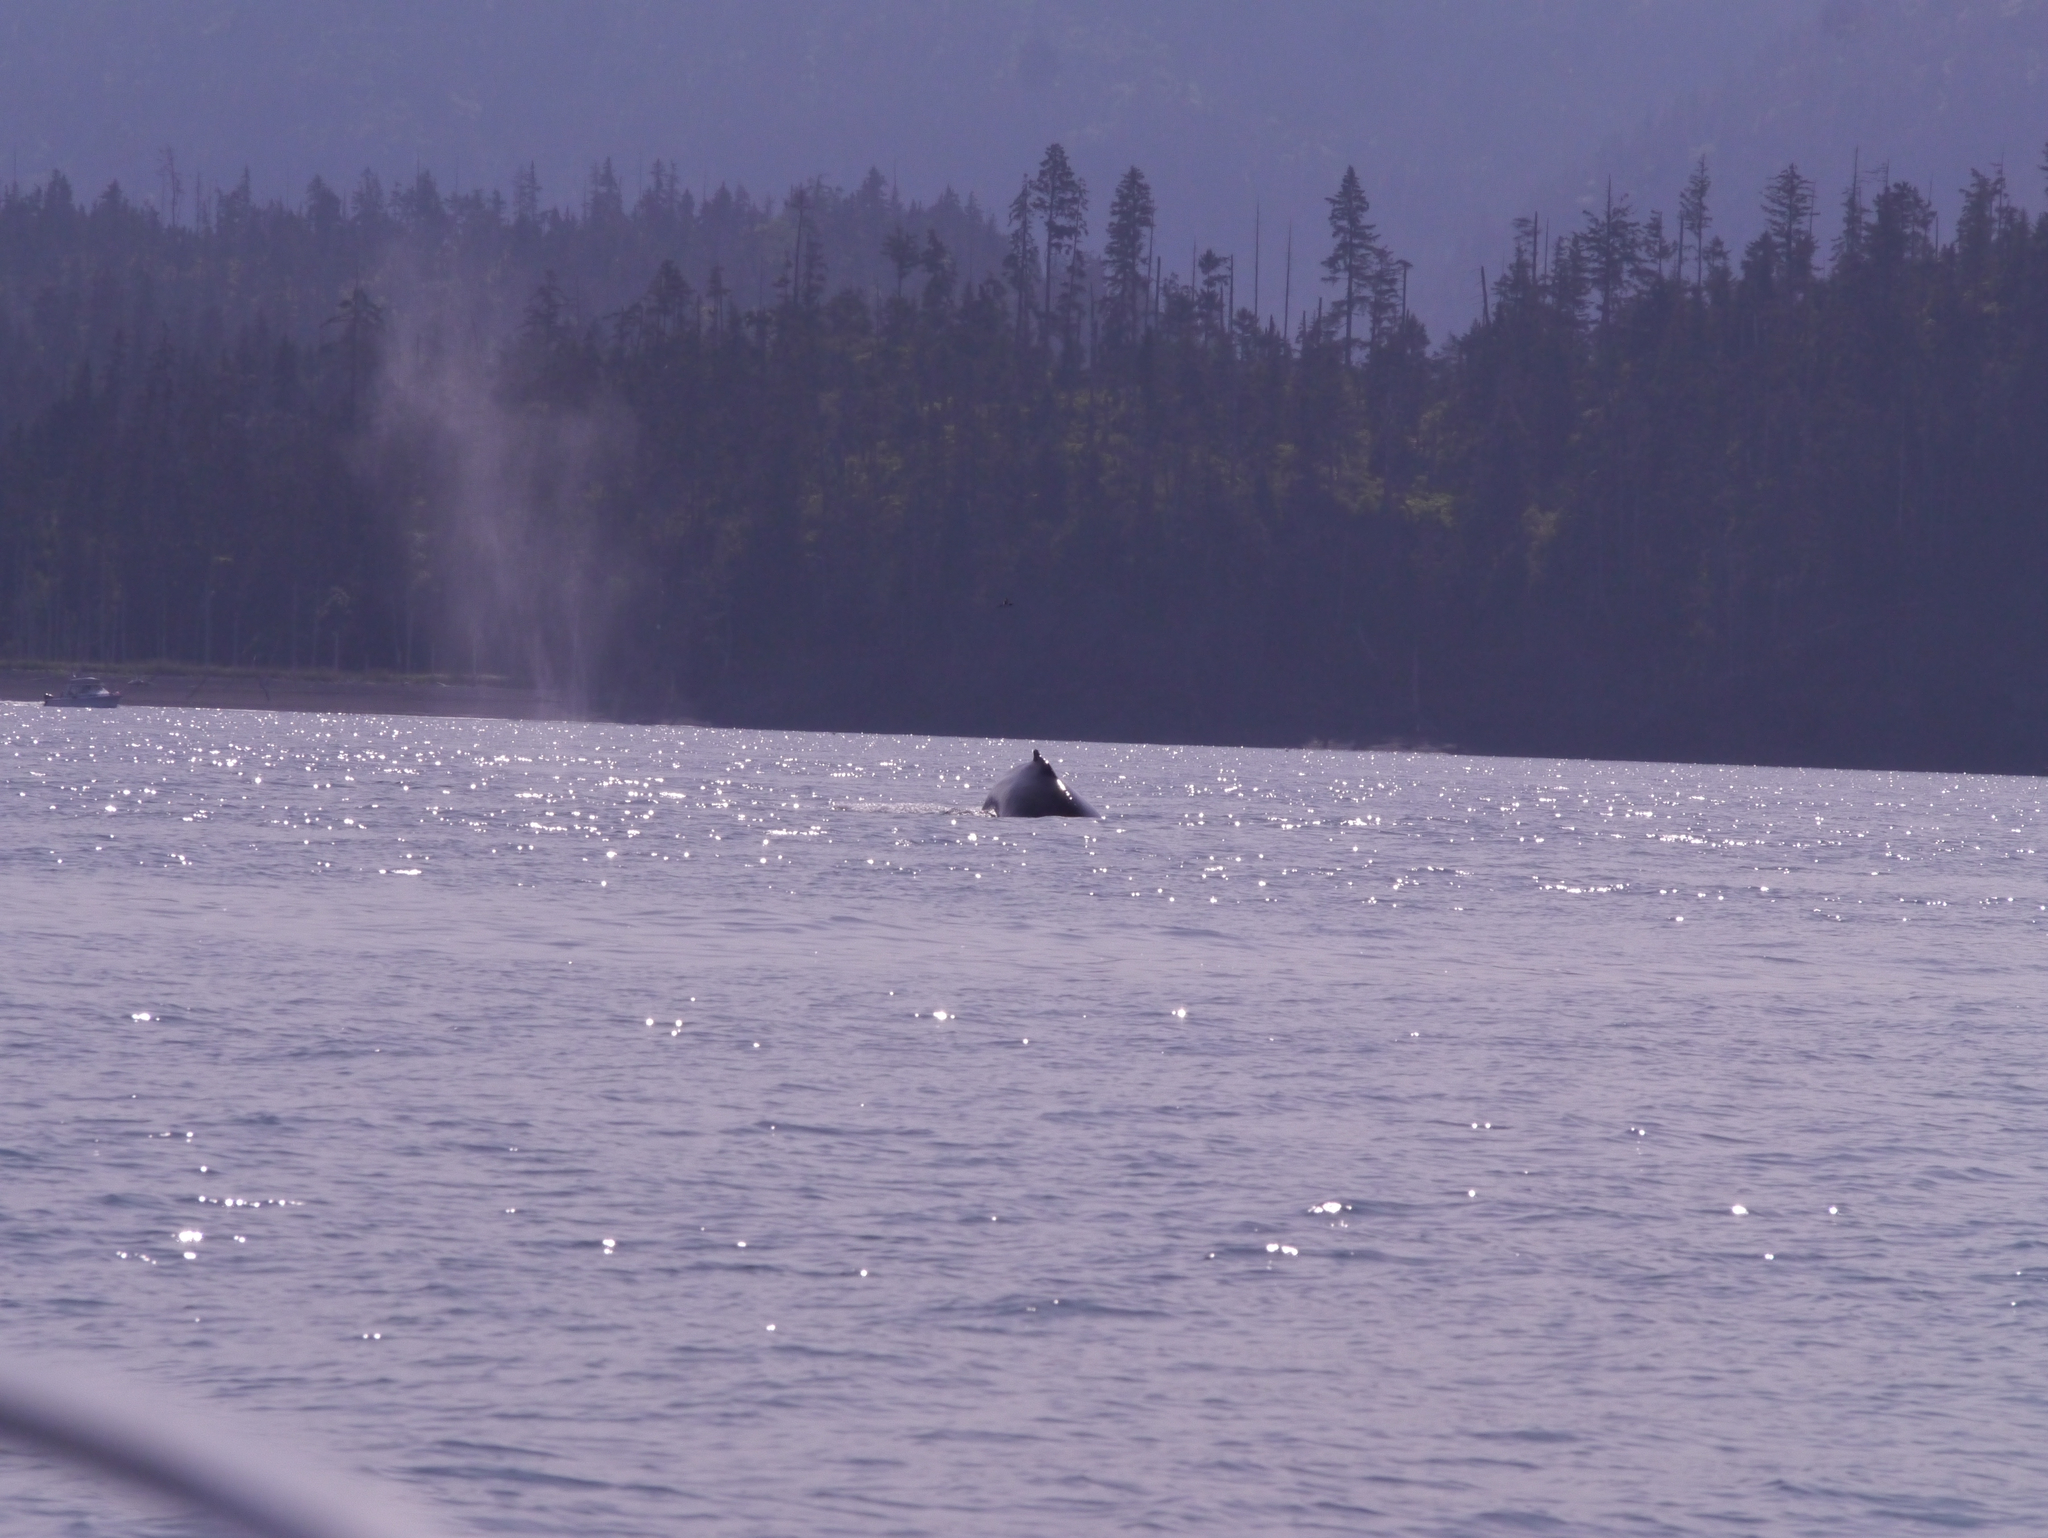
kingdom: Animalia
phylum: Chordata
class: Mammalia
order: Cetacea
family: Balaenopteridae
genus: Megaptera
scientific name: Megaptera novaeangliae
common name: Humpback whale
